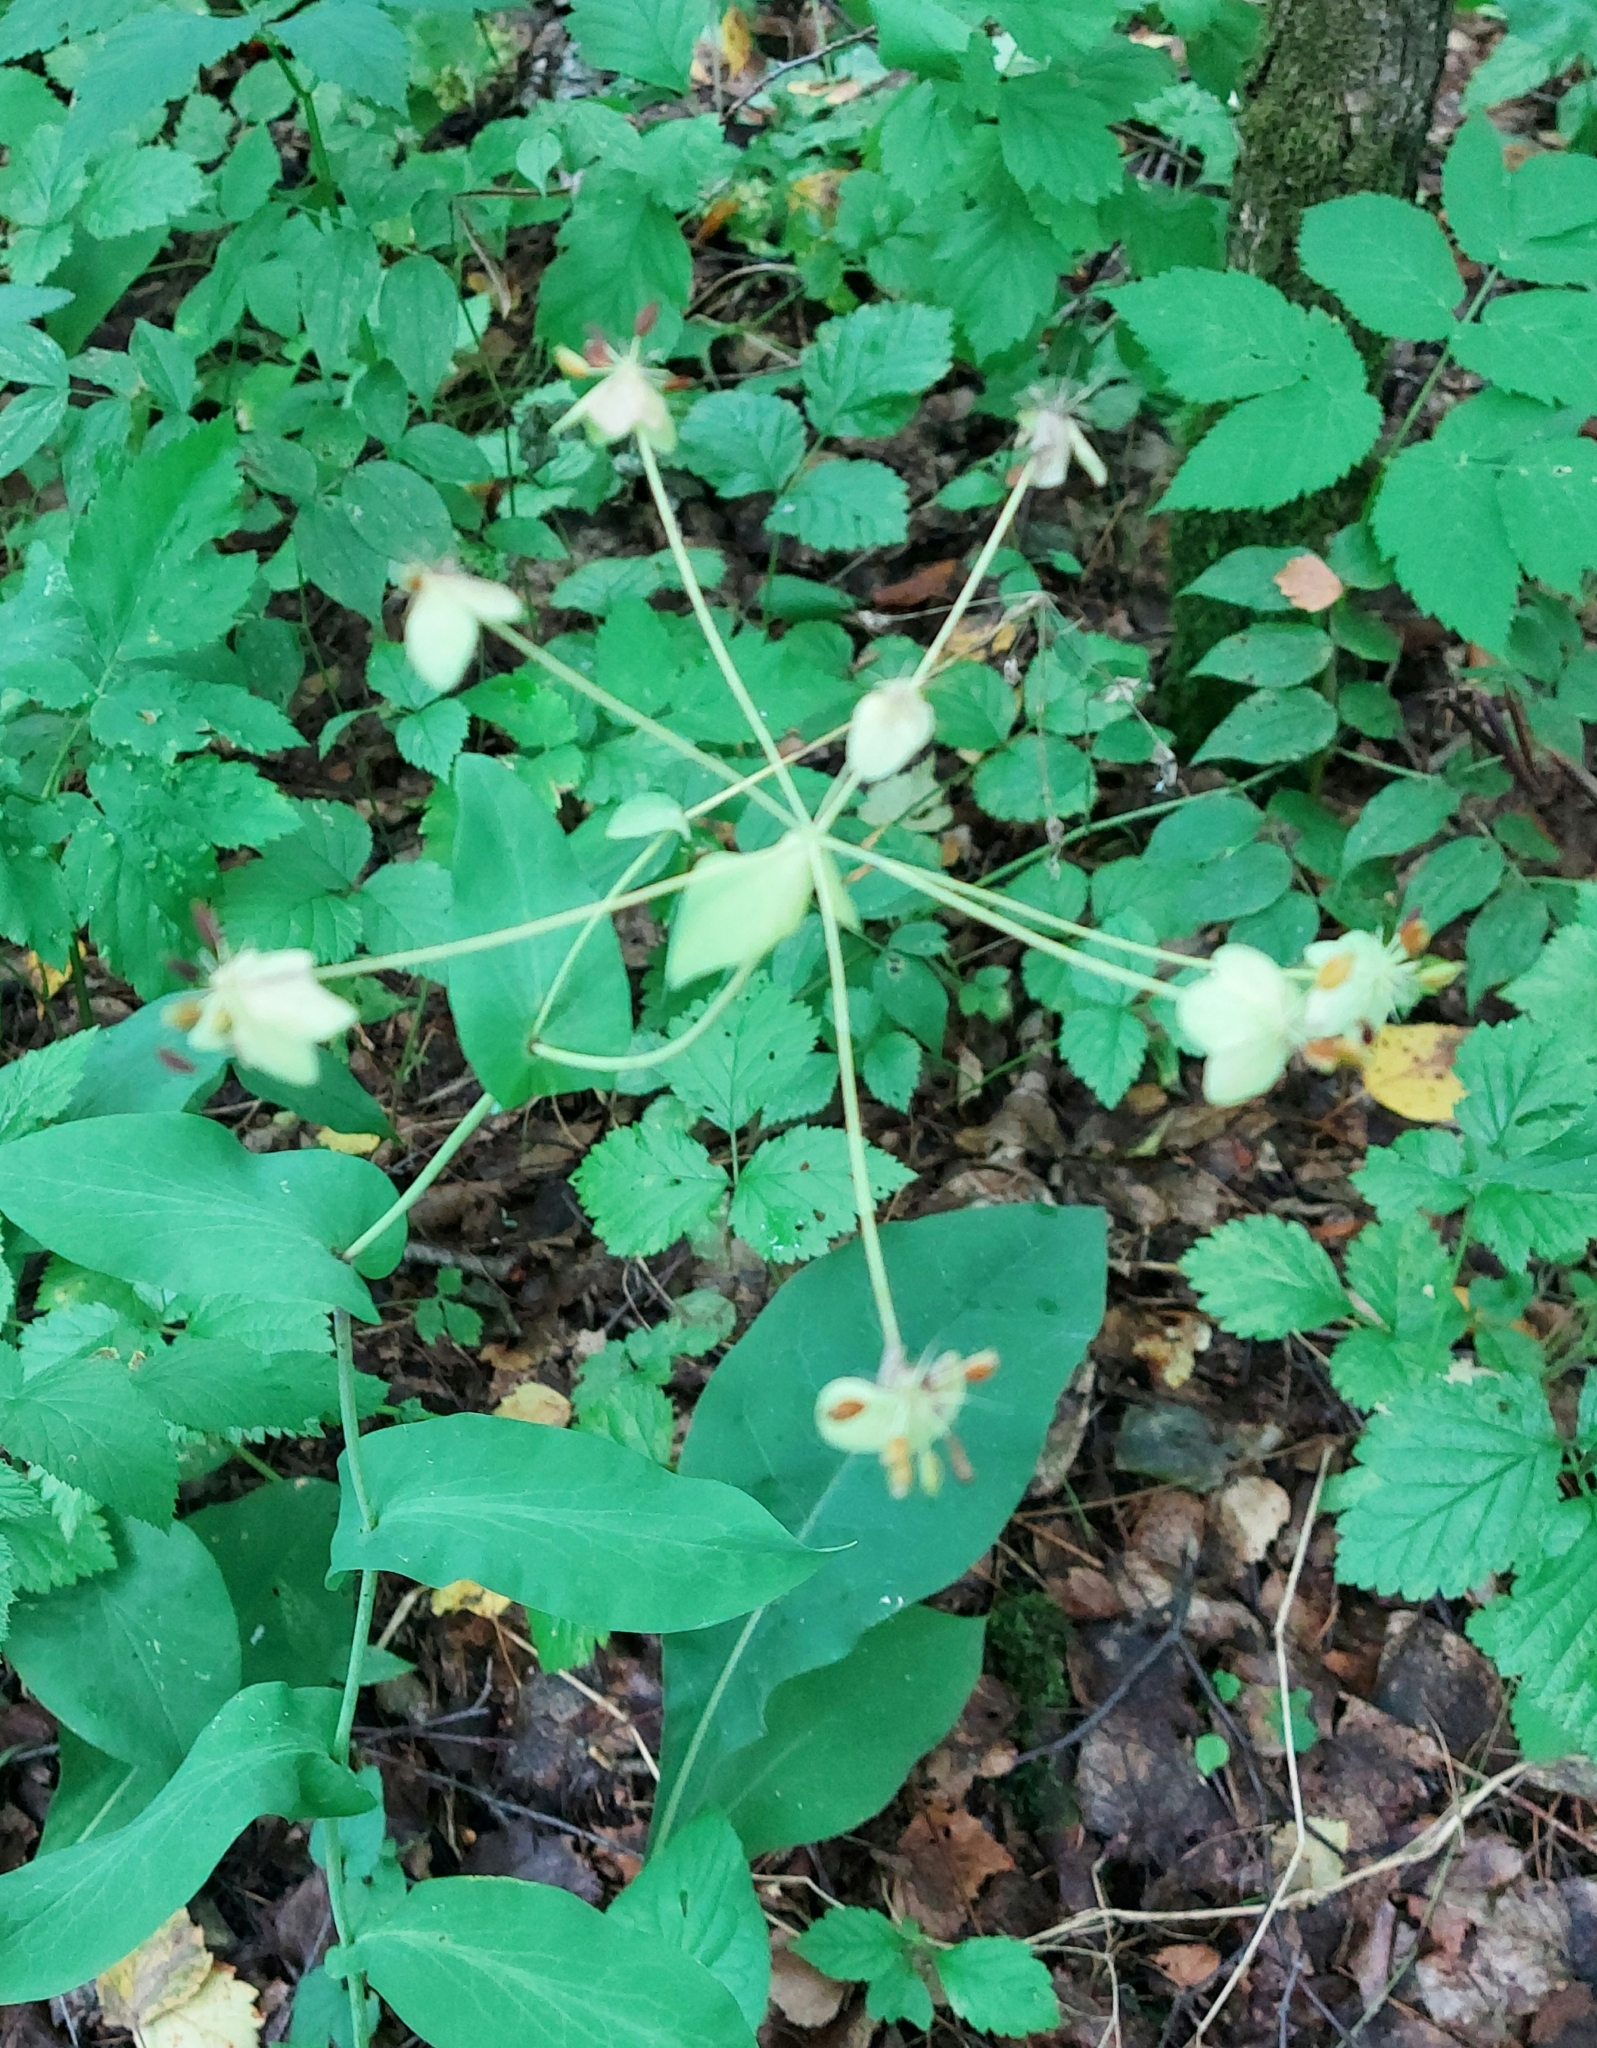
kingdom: Plantae
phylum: Tracheophyta
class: Magnoliopsida
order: Apiales
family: Apiaceae
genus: Bupleurum
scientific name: Bupleurum aureum
